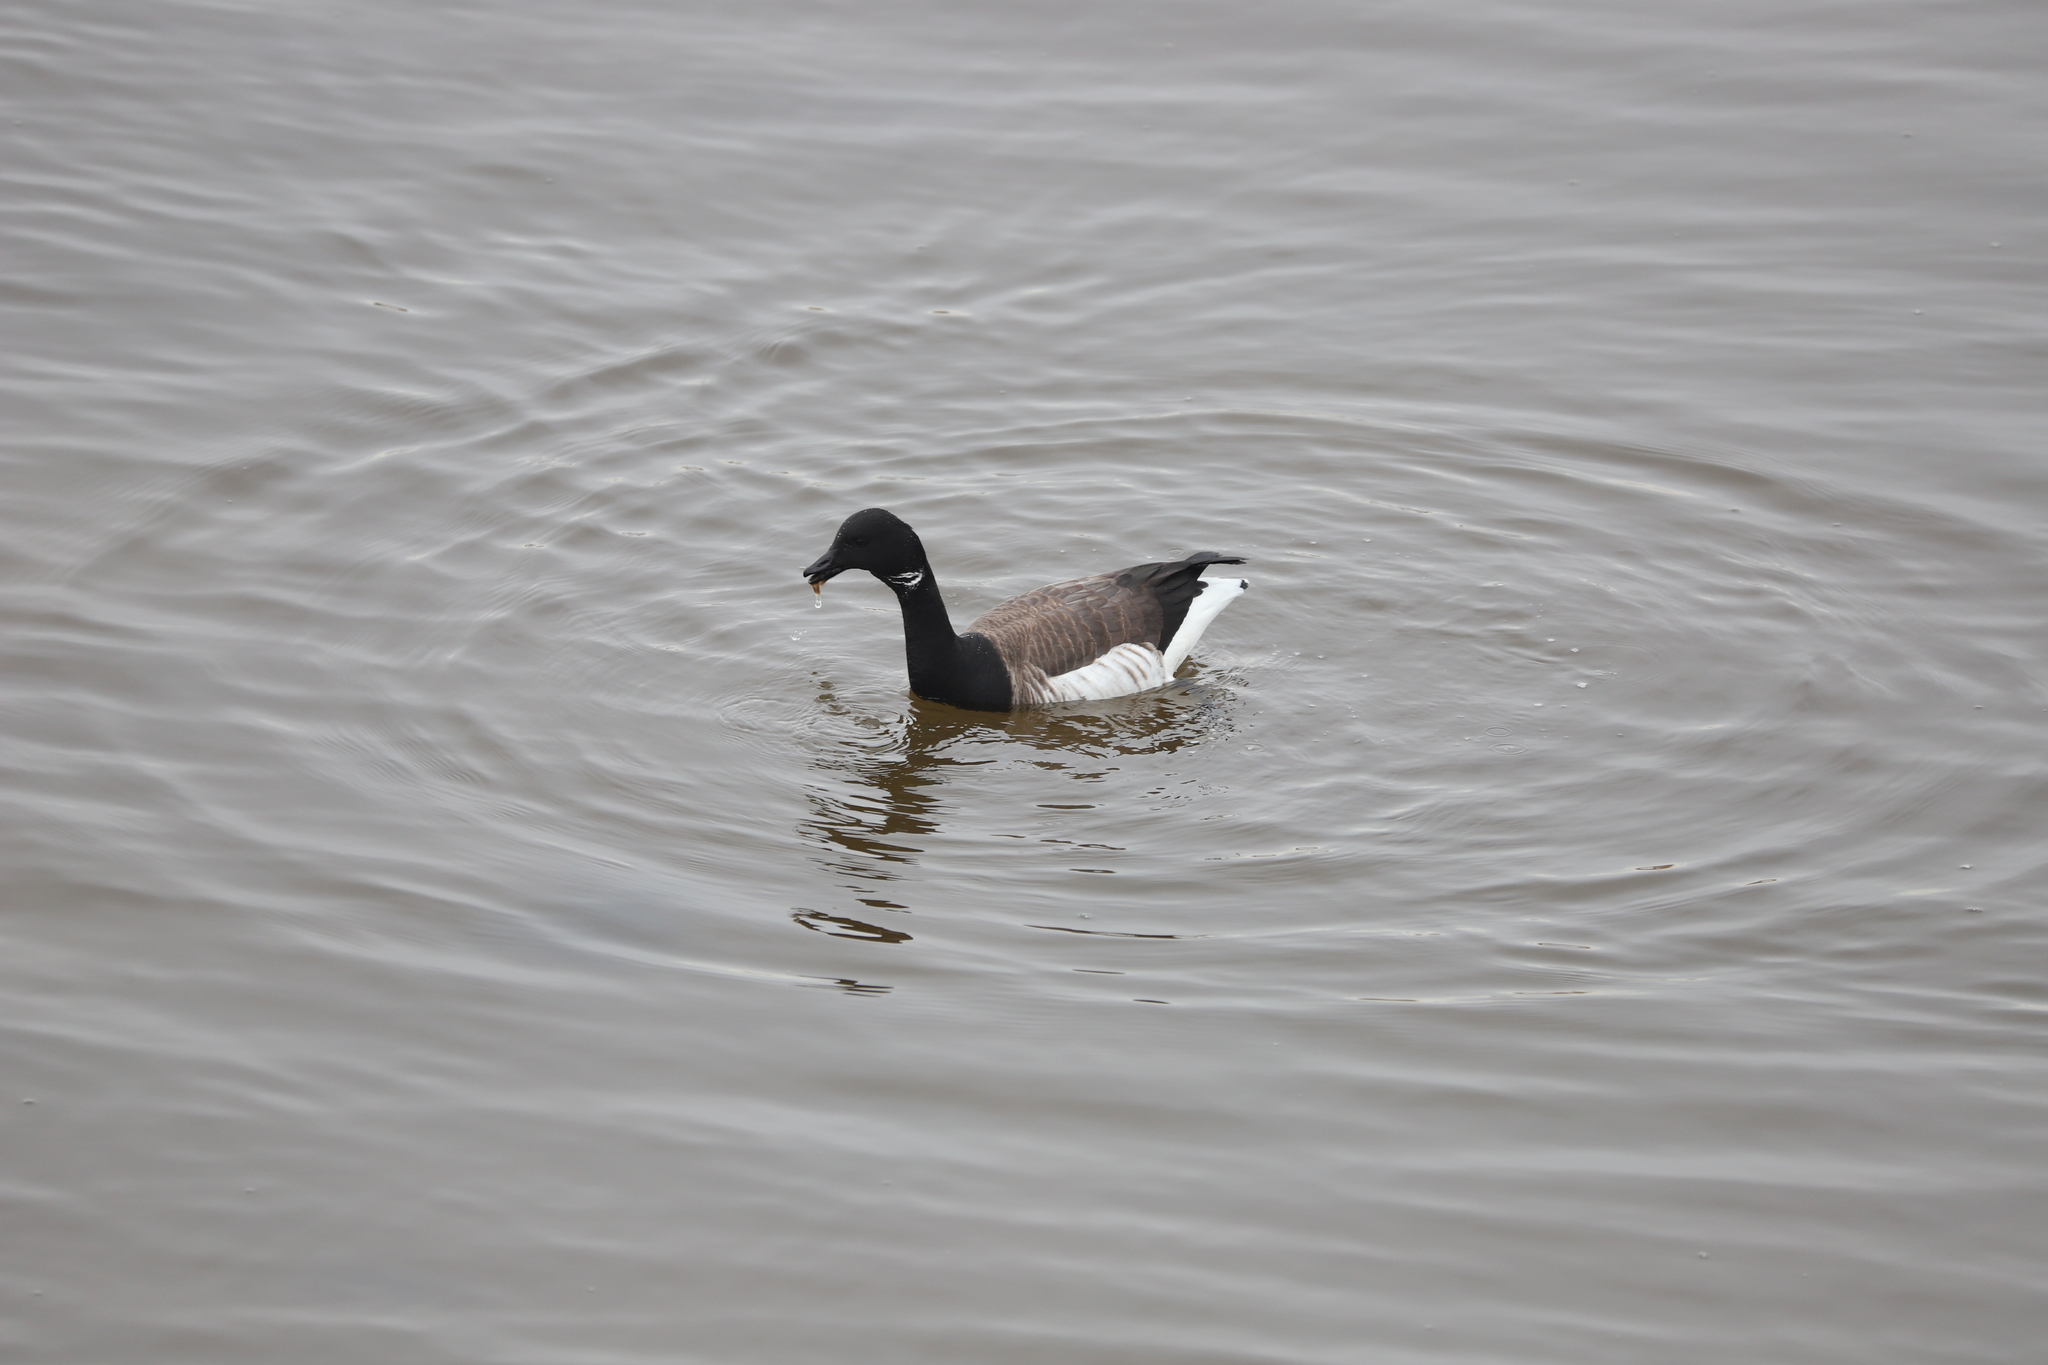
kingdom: Animalia
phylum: Chordata
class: Aves
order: Anseriformes
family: Anatidae
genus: Branta
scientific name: Branta bernicla
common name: Brant goose
